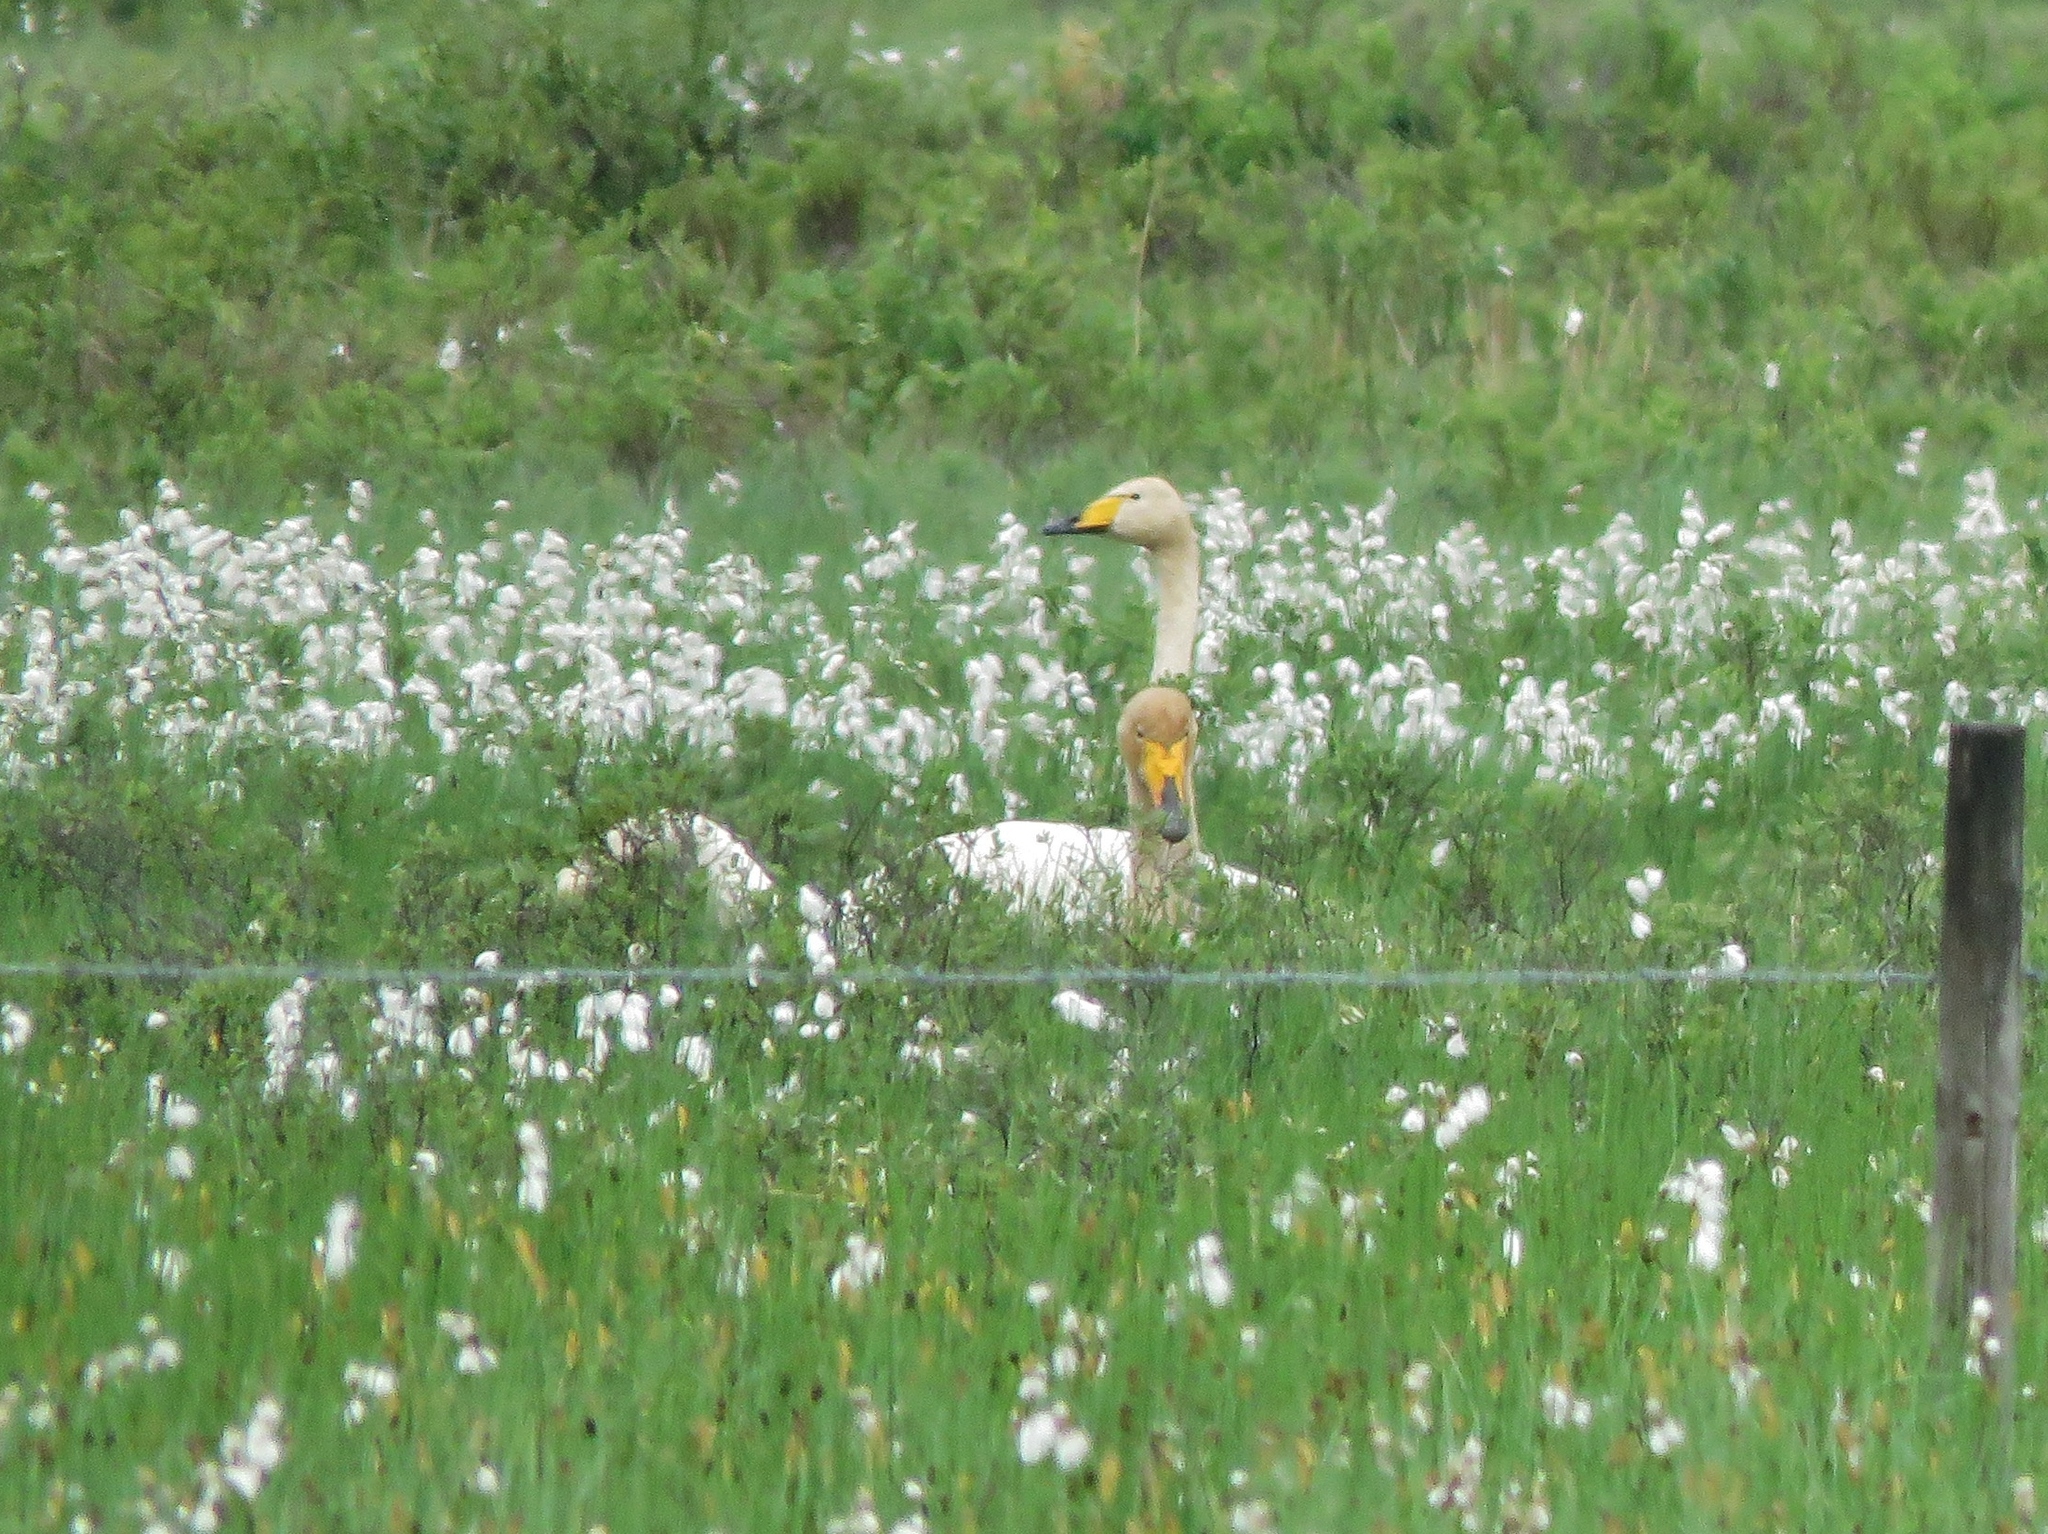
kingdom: Animalia
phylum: Chordata
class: Aves
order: Anseriformes
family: Anatidae
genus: Cygnus
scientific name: Cygnus cygnus
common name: Whooper swan
